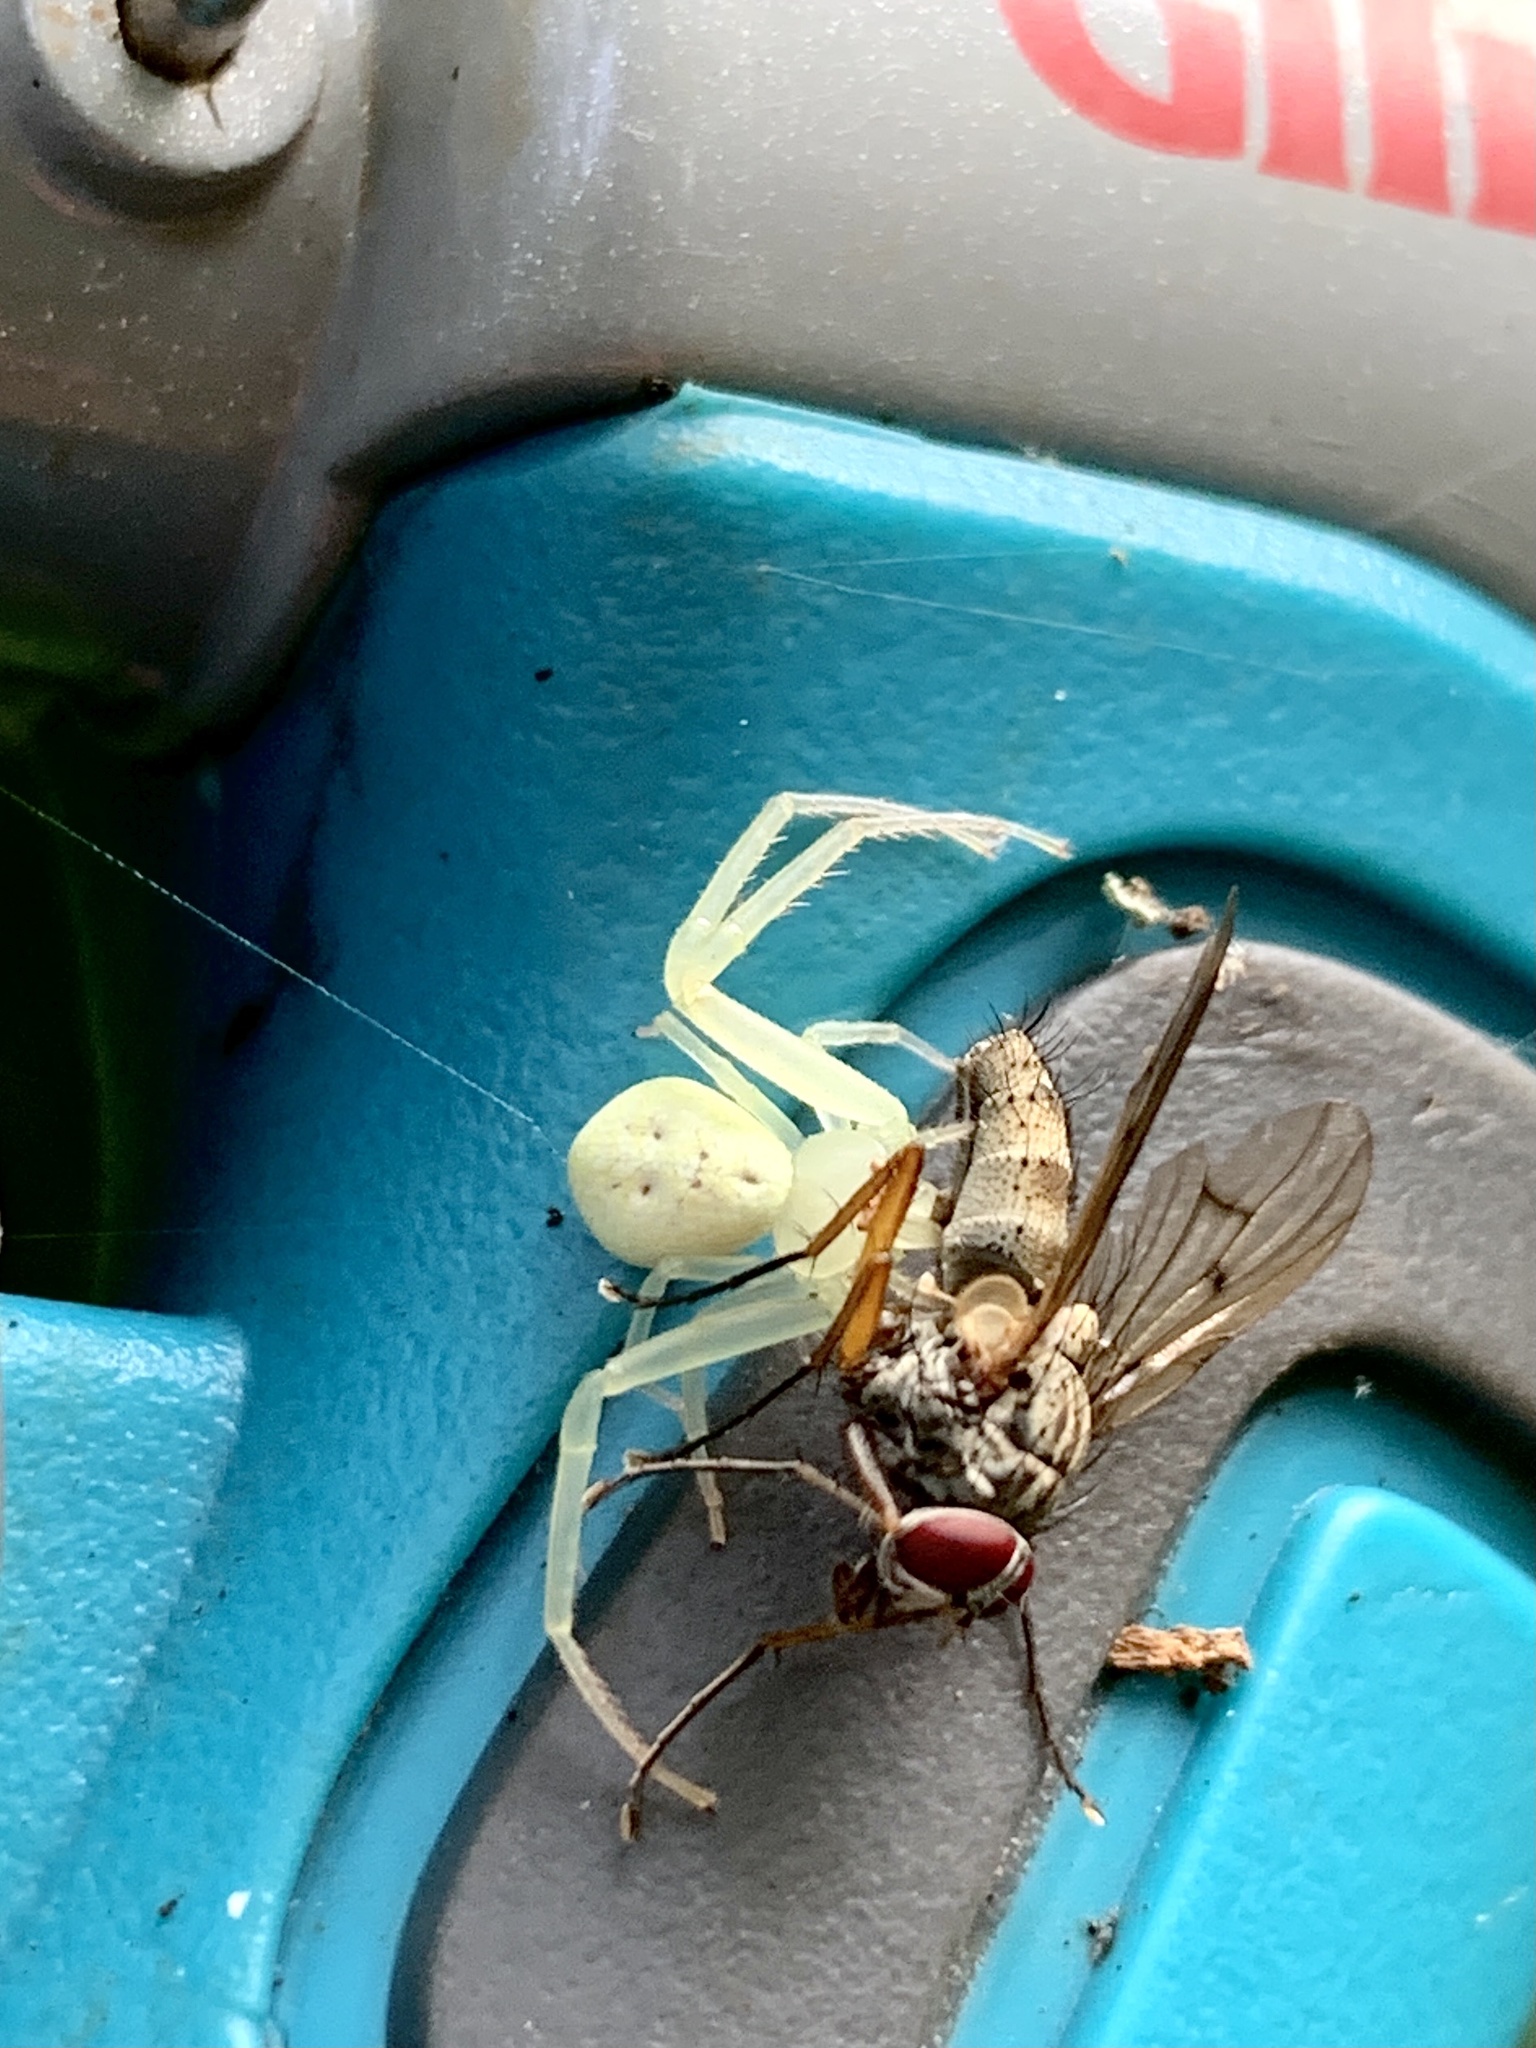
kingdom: Animalia
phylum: Arthropoda
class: Arachnida
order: Araneae
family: Thomisidae
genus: Misumessus
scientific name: Misumessus oblongus
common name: American green crab spider
